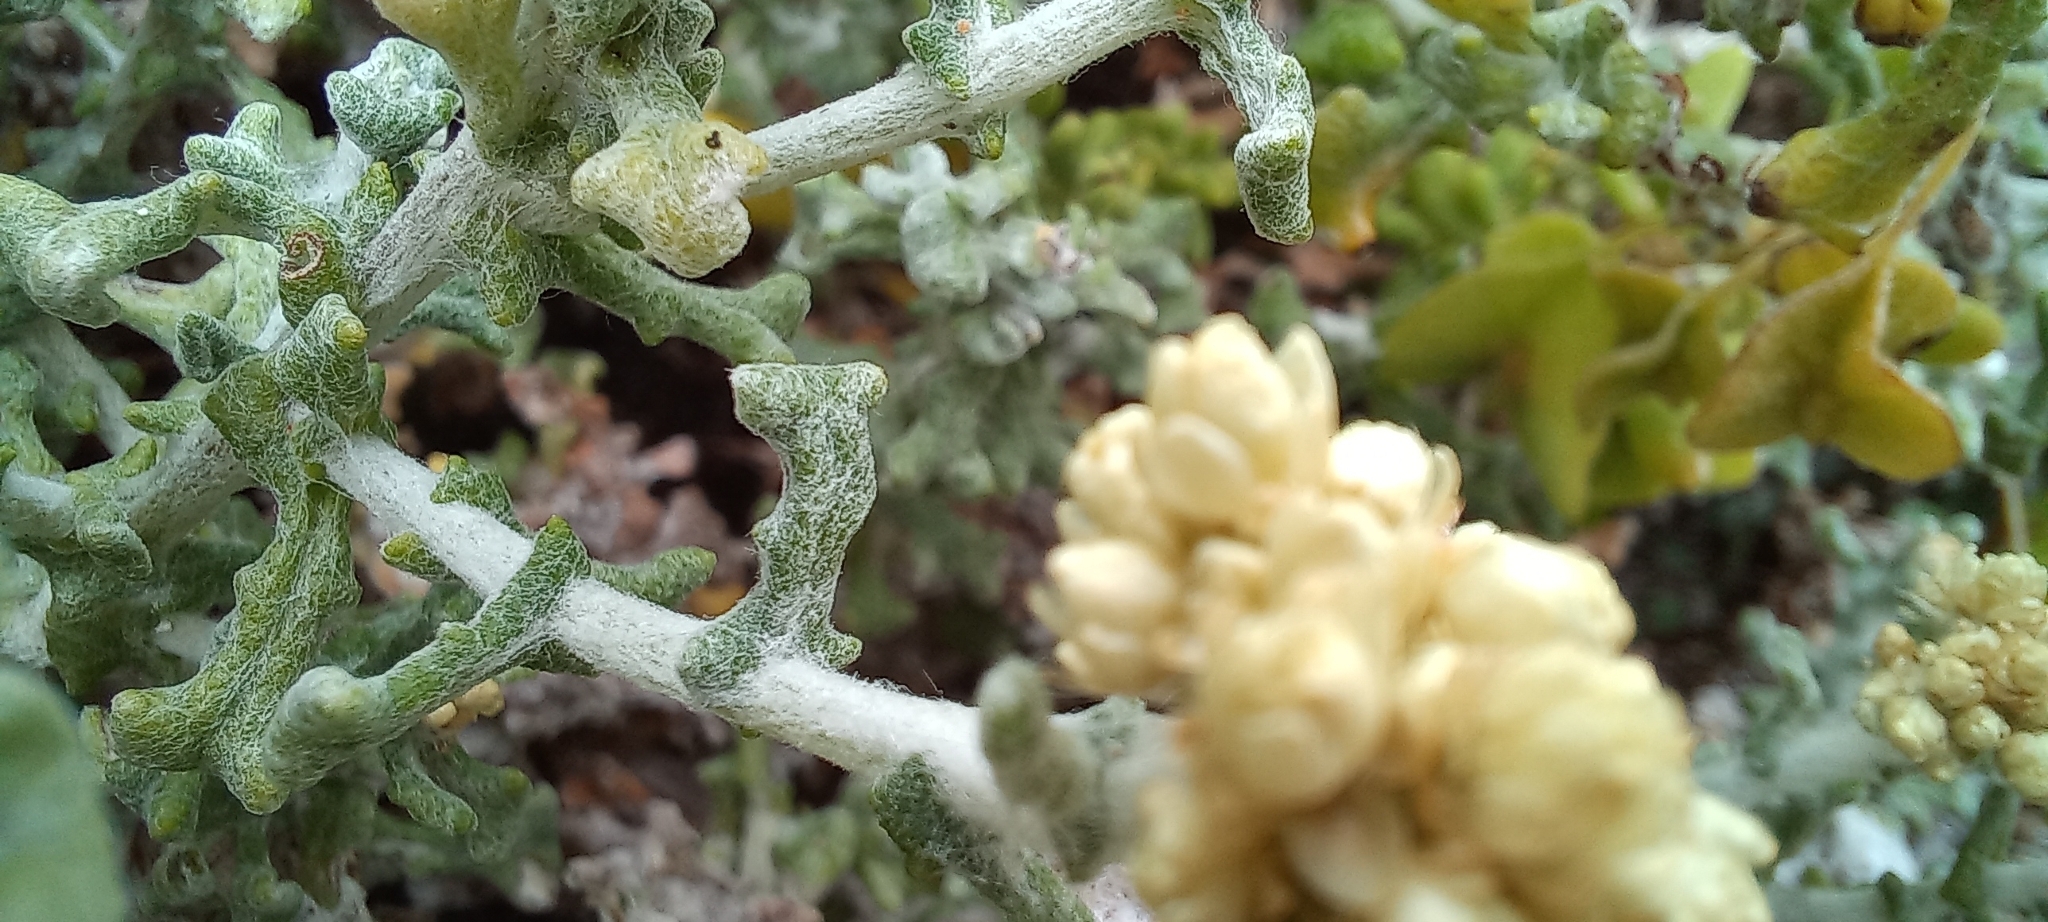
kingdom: Plantae
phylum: Tracheophyta
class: Magnoliopsida
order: Asterales
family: Asteraceae
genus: Helichrysum
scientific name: Helichrysum patulum
